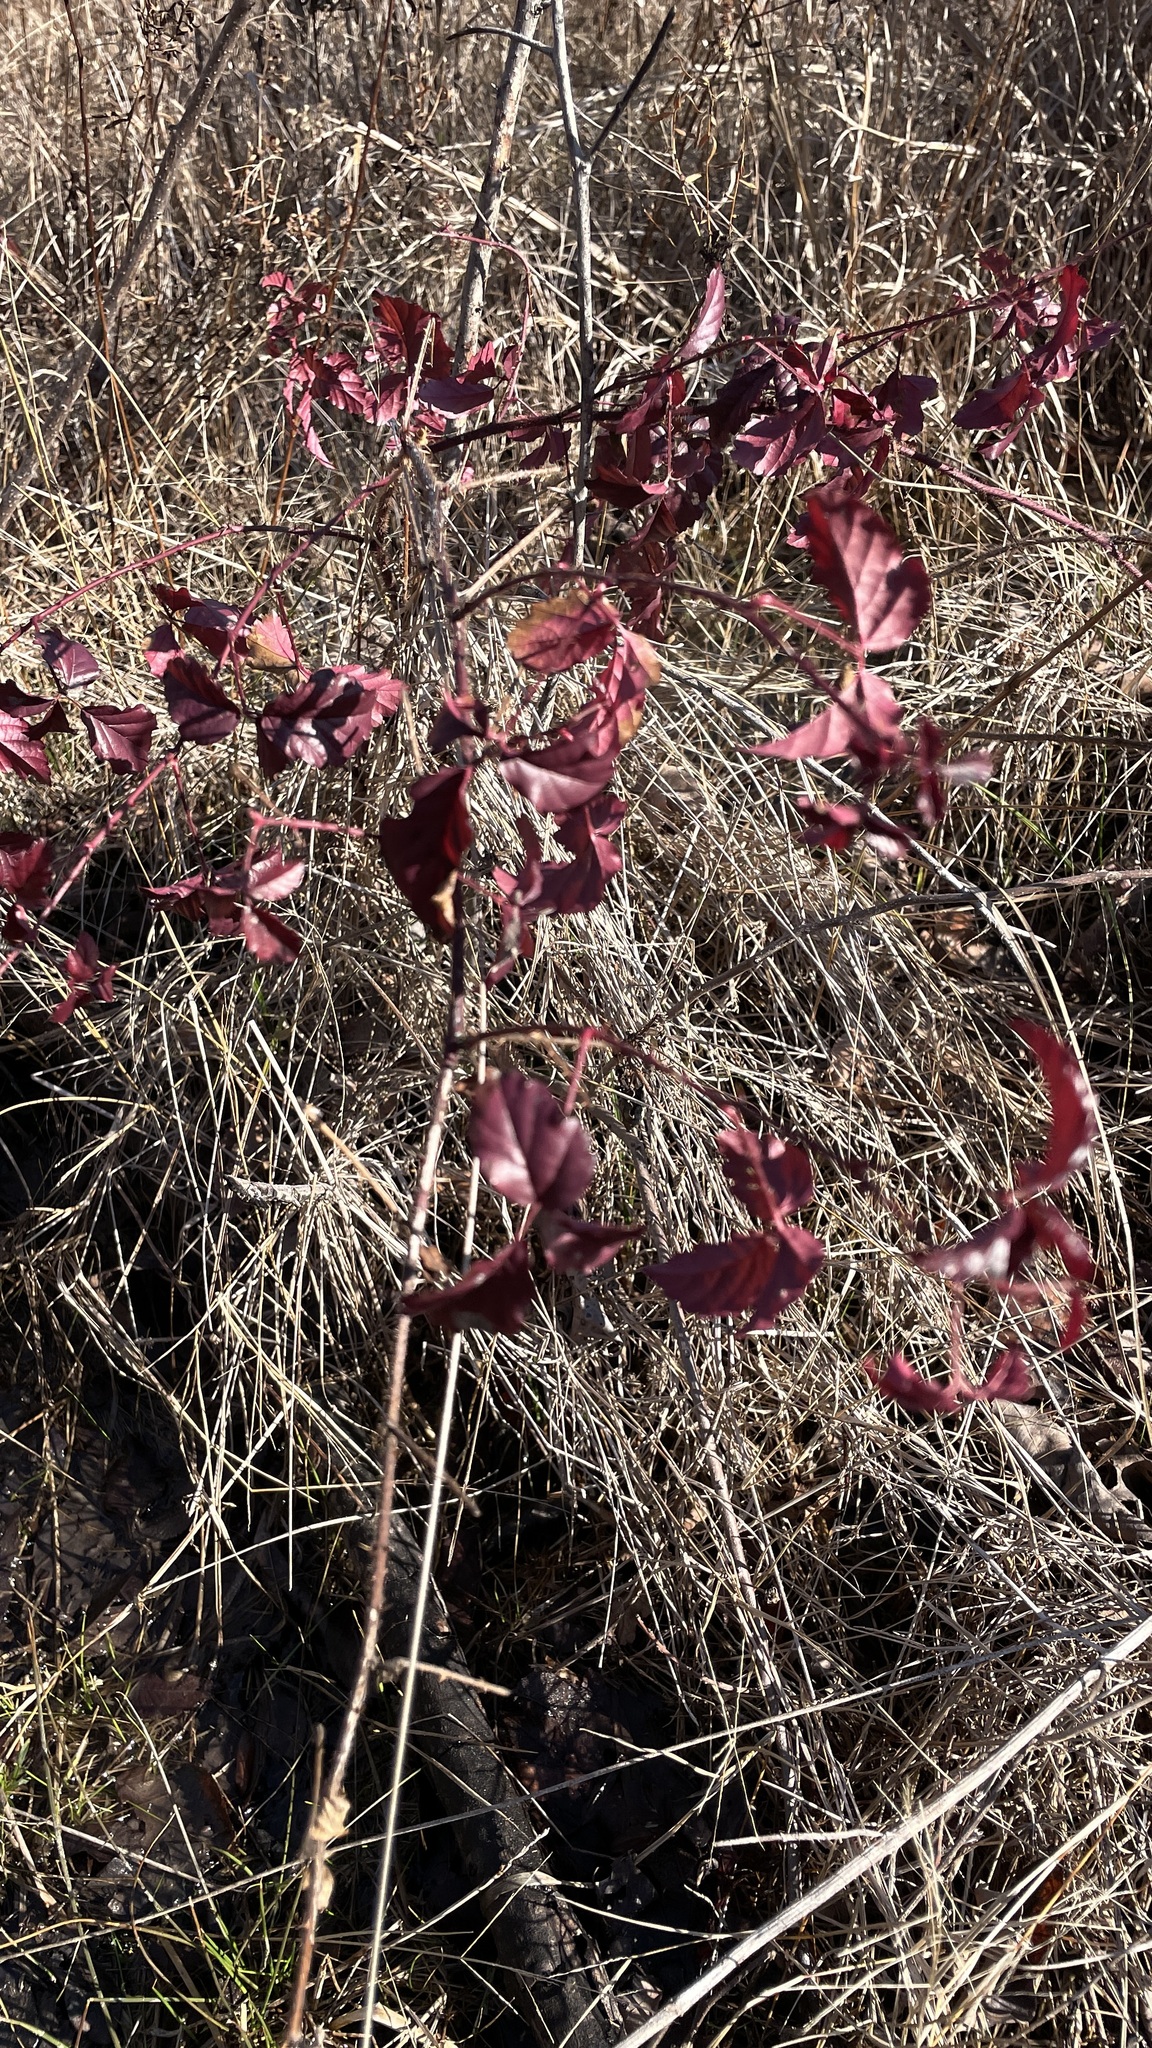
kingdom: Plantae
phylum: Tracheophyta
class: Magnoliopsida
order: Rosales
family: Rosaceae
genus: Rubus
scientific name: Rubus trivialis
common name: Southern dewberry
